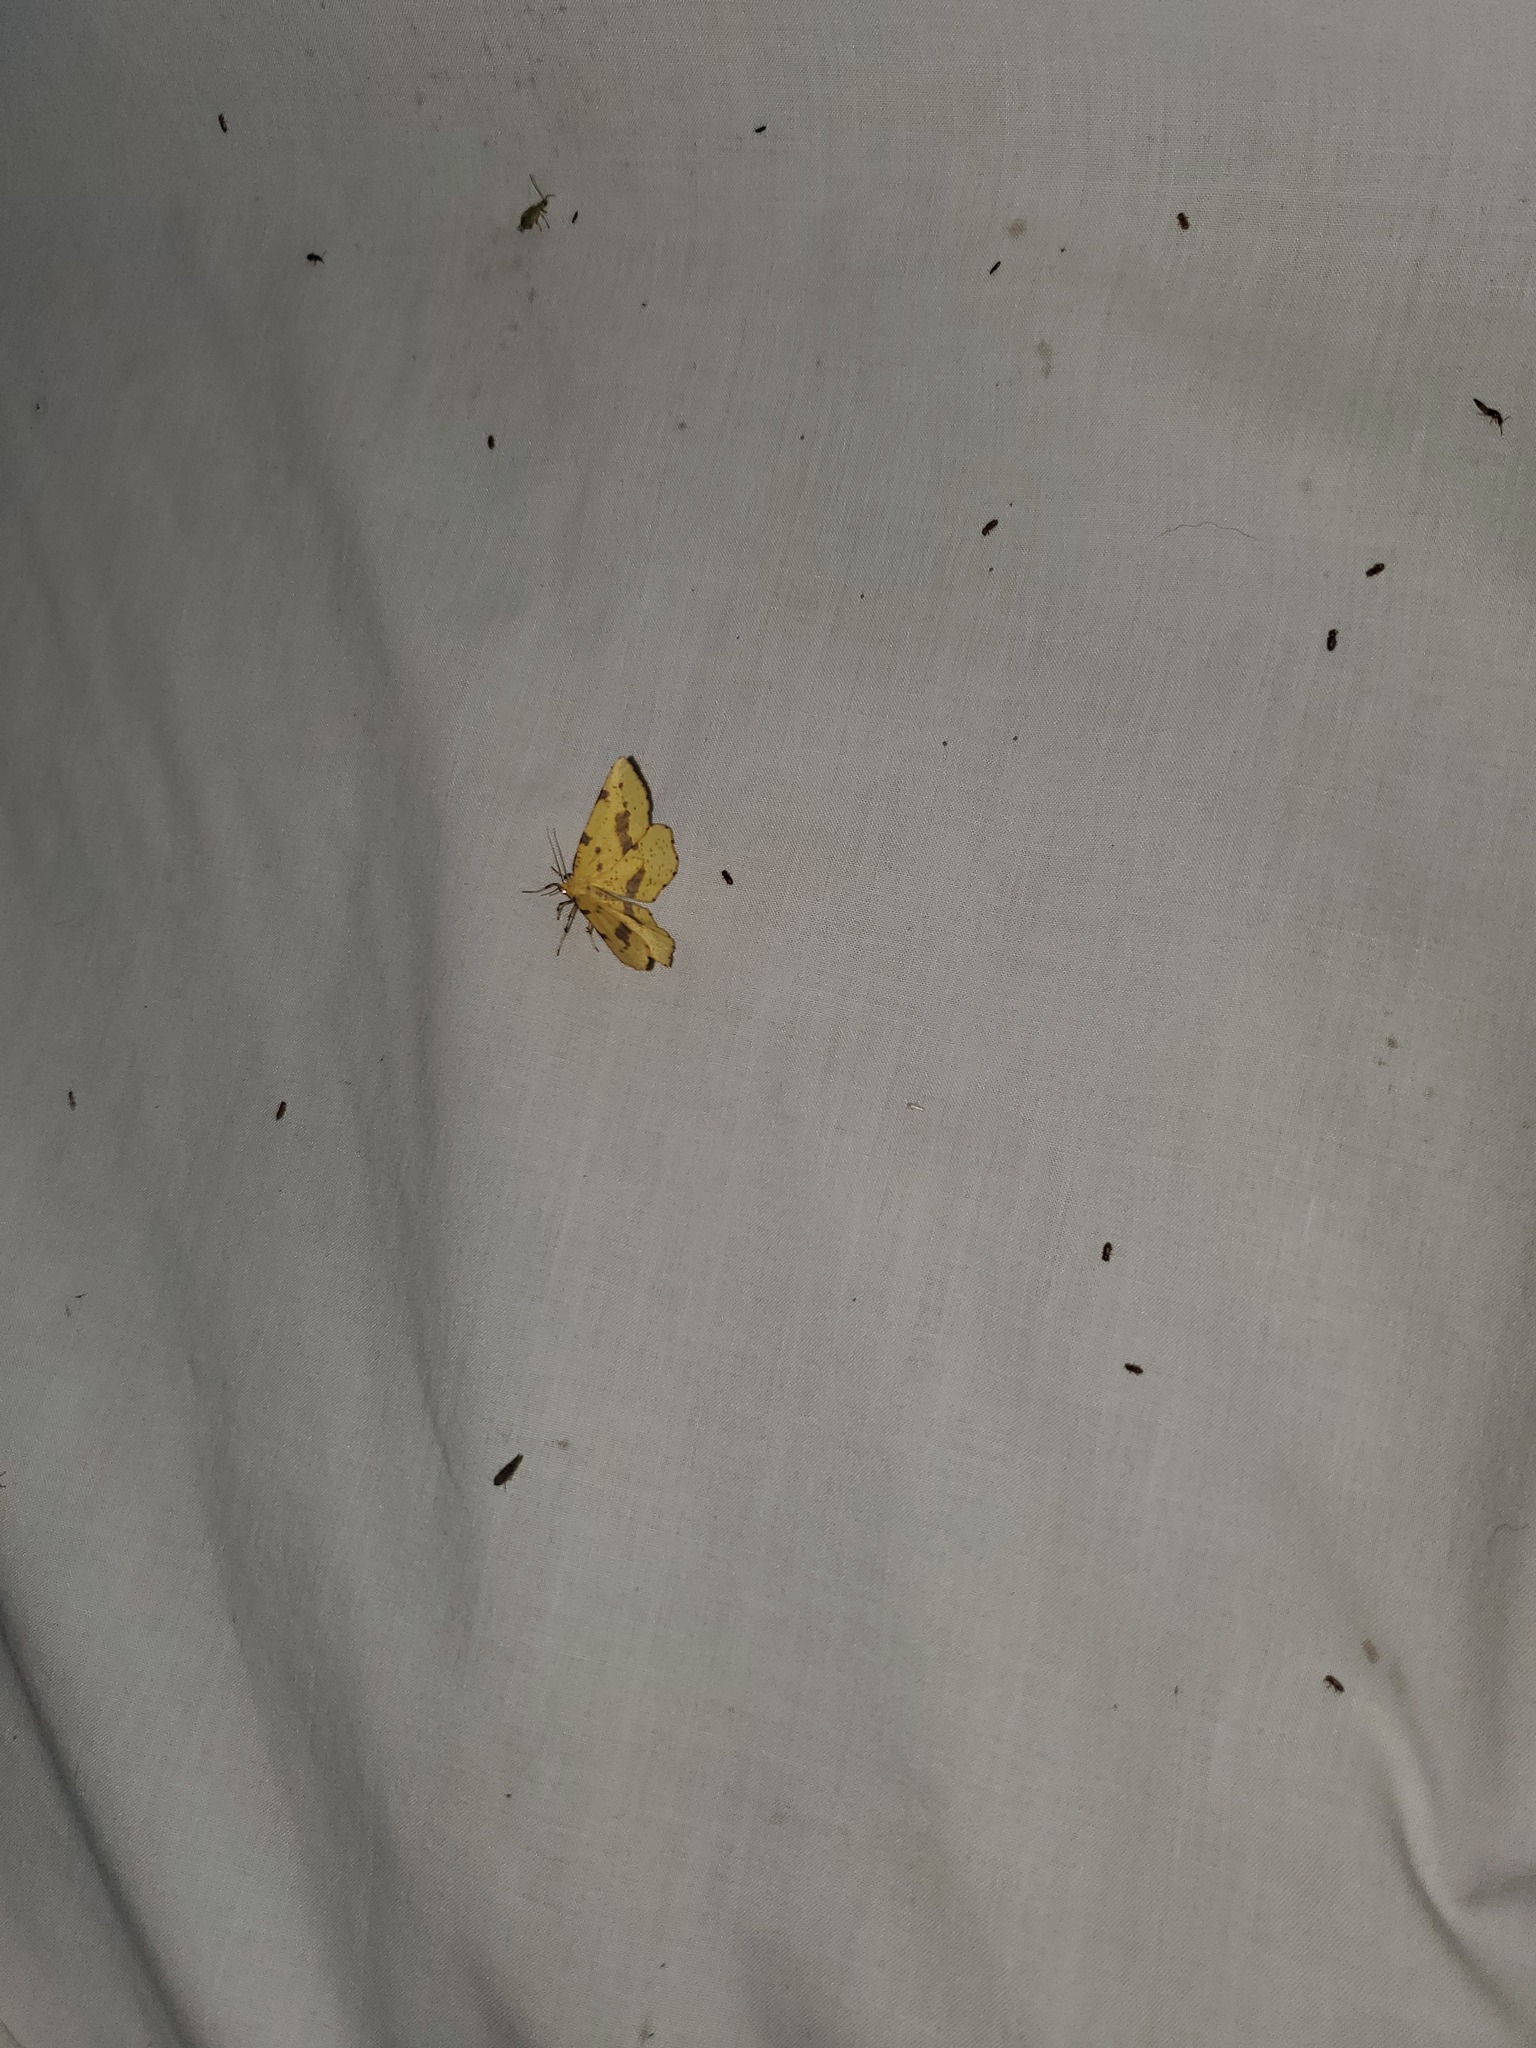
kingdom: Animalia
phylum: Arthropoda
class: Insecta
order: Lepidoptera
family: Geometridae
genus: Xanthotype
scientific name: Xanthotype
